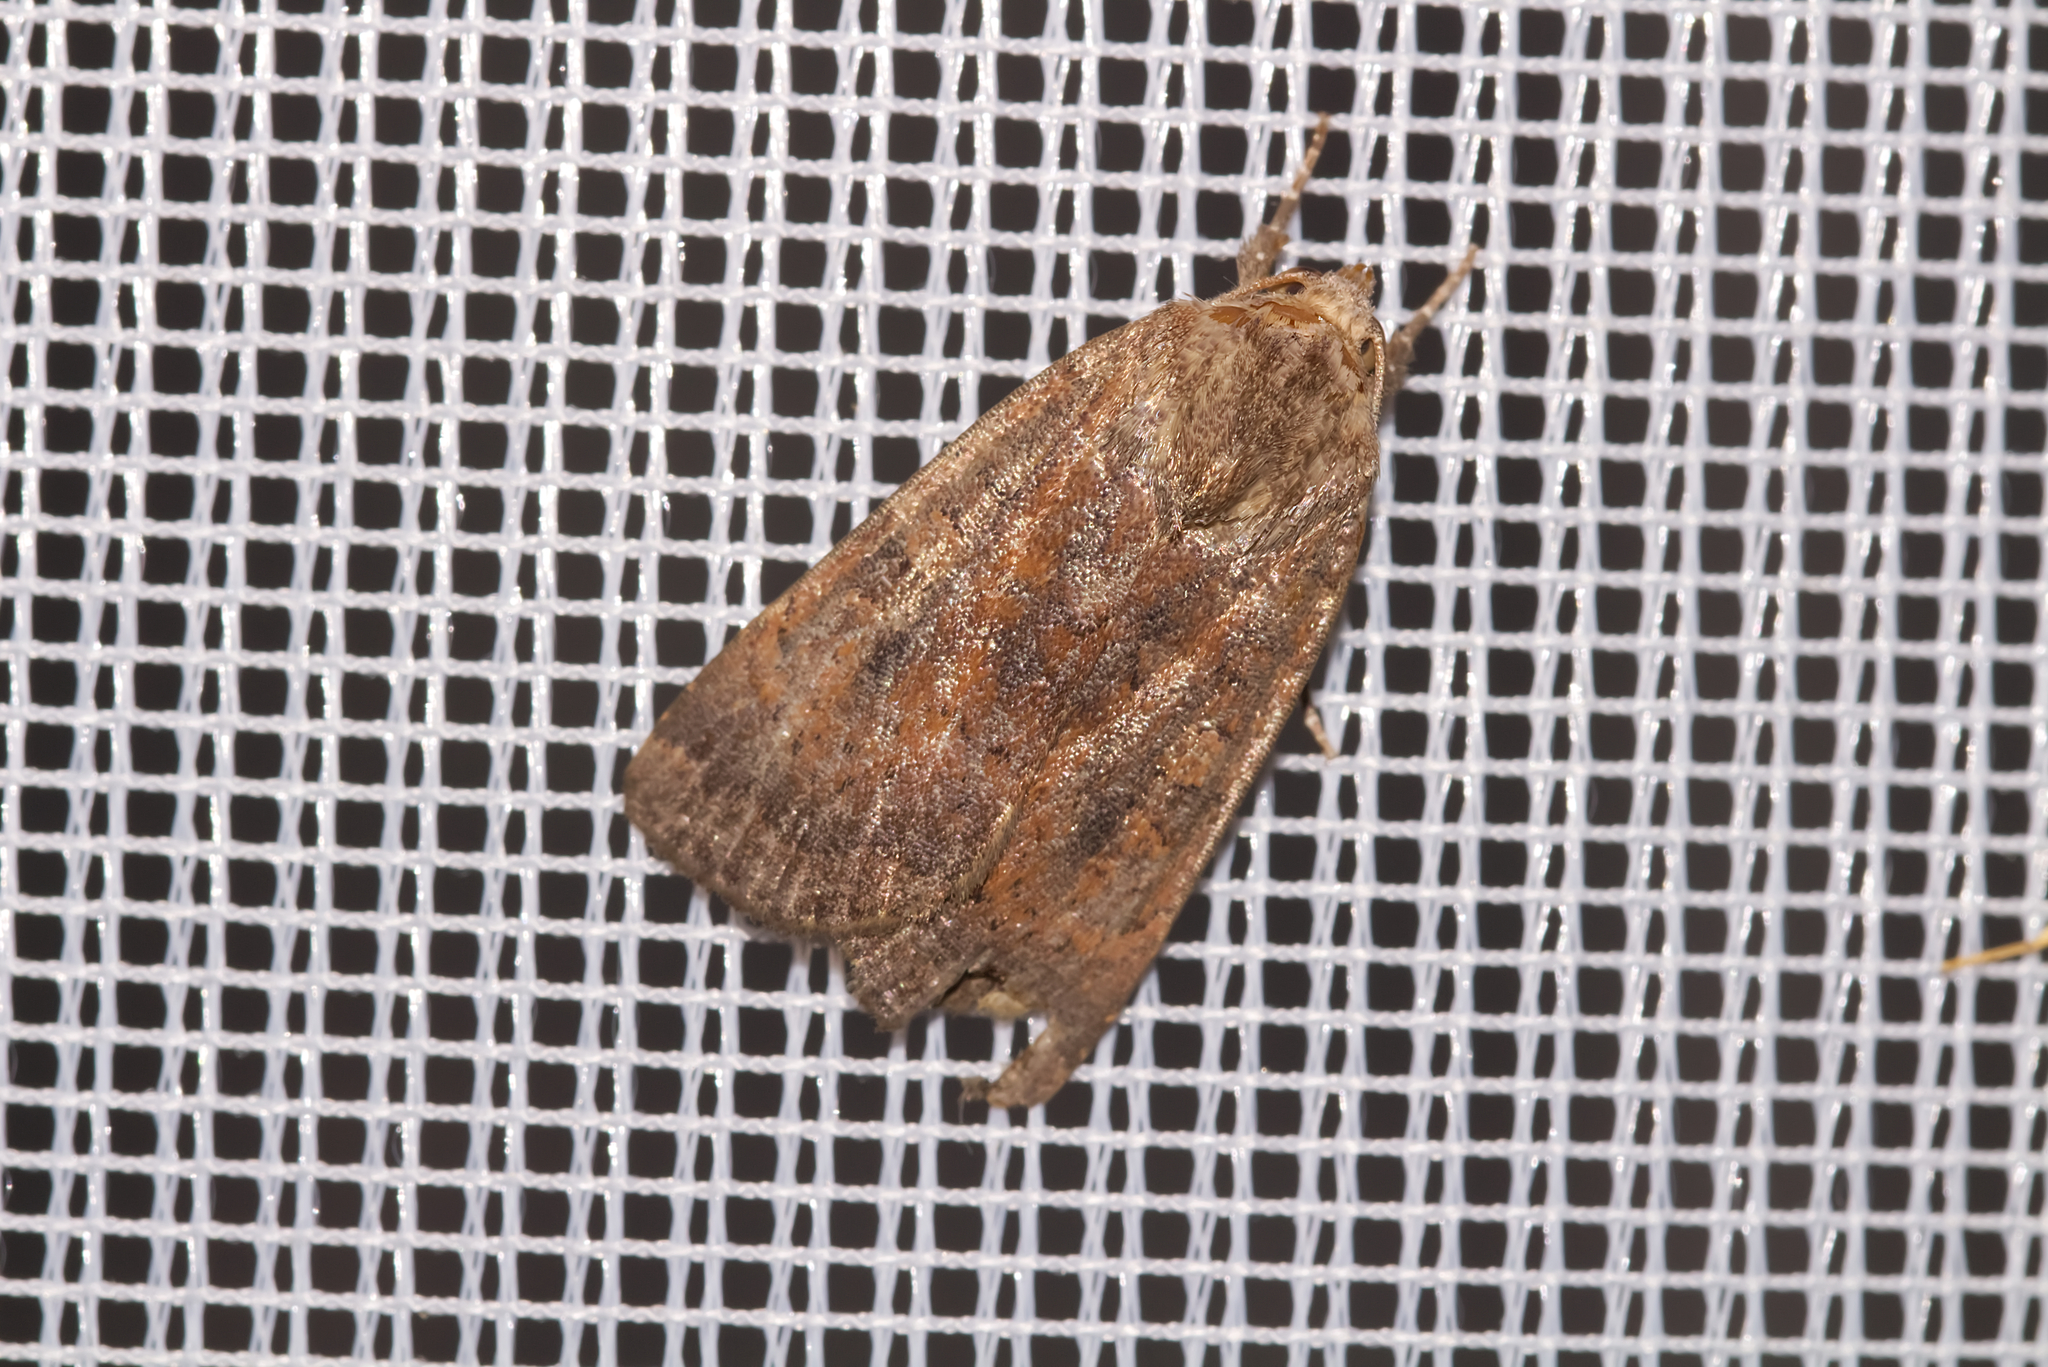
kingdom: Animalia
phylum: Arthropoda
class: Insecta
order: Lepidoptera
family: Noctuidae
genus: Noctua
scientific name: Noctua interjecta
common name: Least yellow underwing
